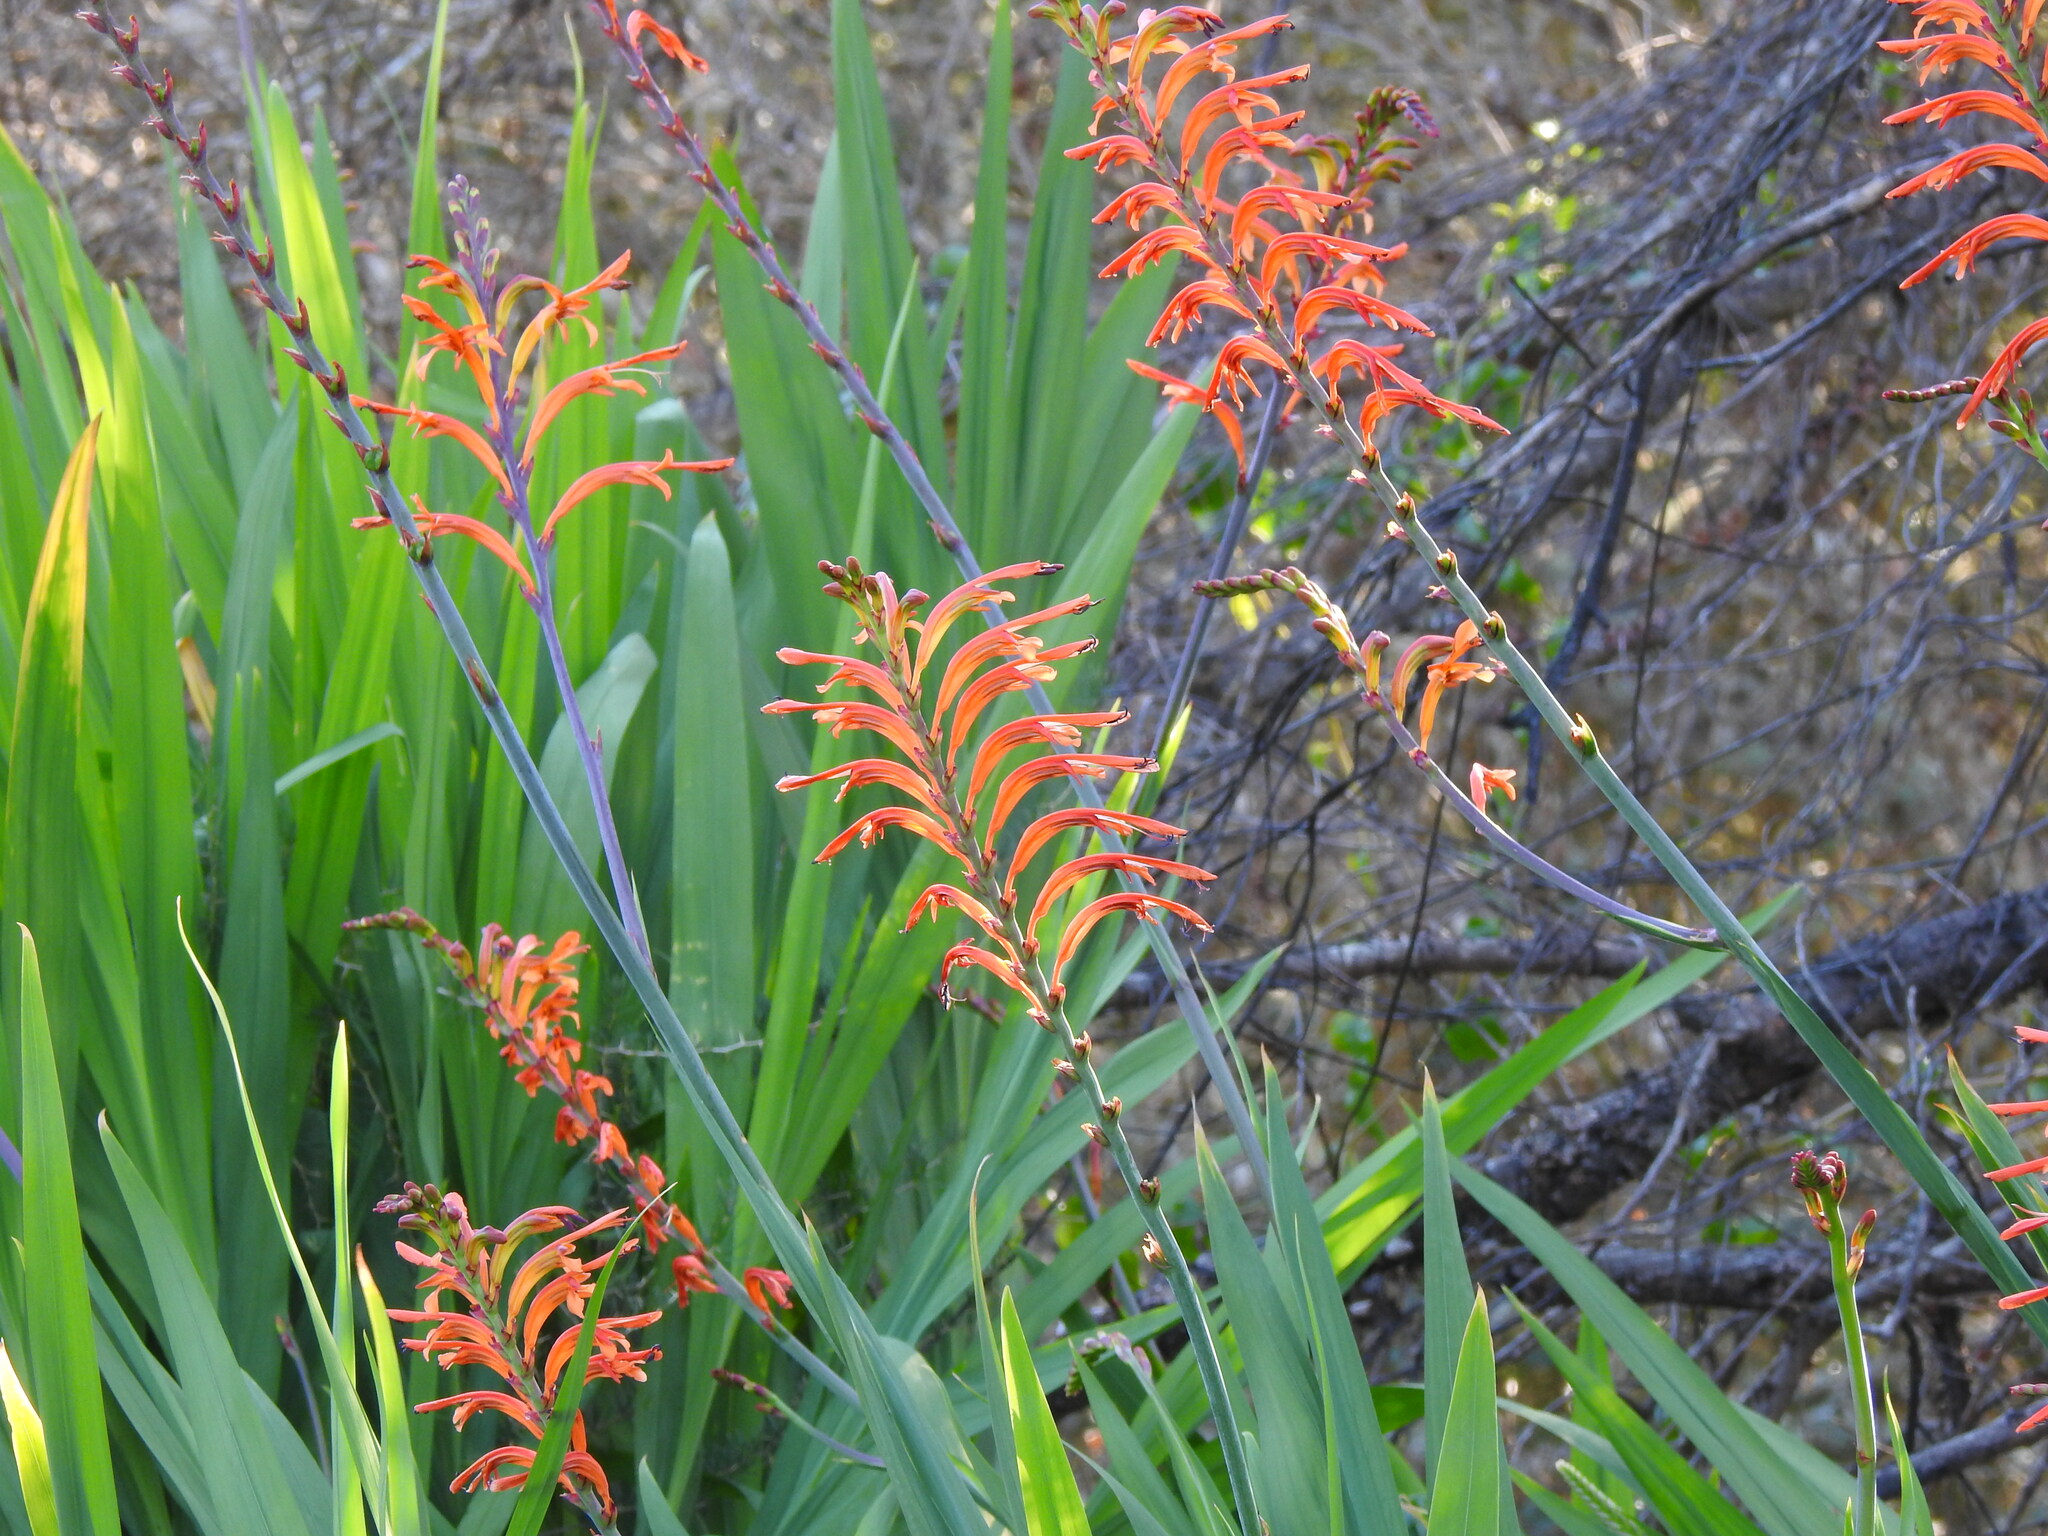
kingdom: Plantae
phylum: Tracheophyta
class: Liliopsida
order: Asparagales
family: Iridaceae
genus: Chasmanthe
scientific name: Chasmanthe floribunda
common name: African cornflag
